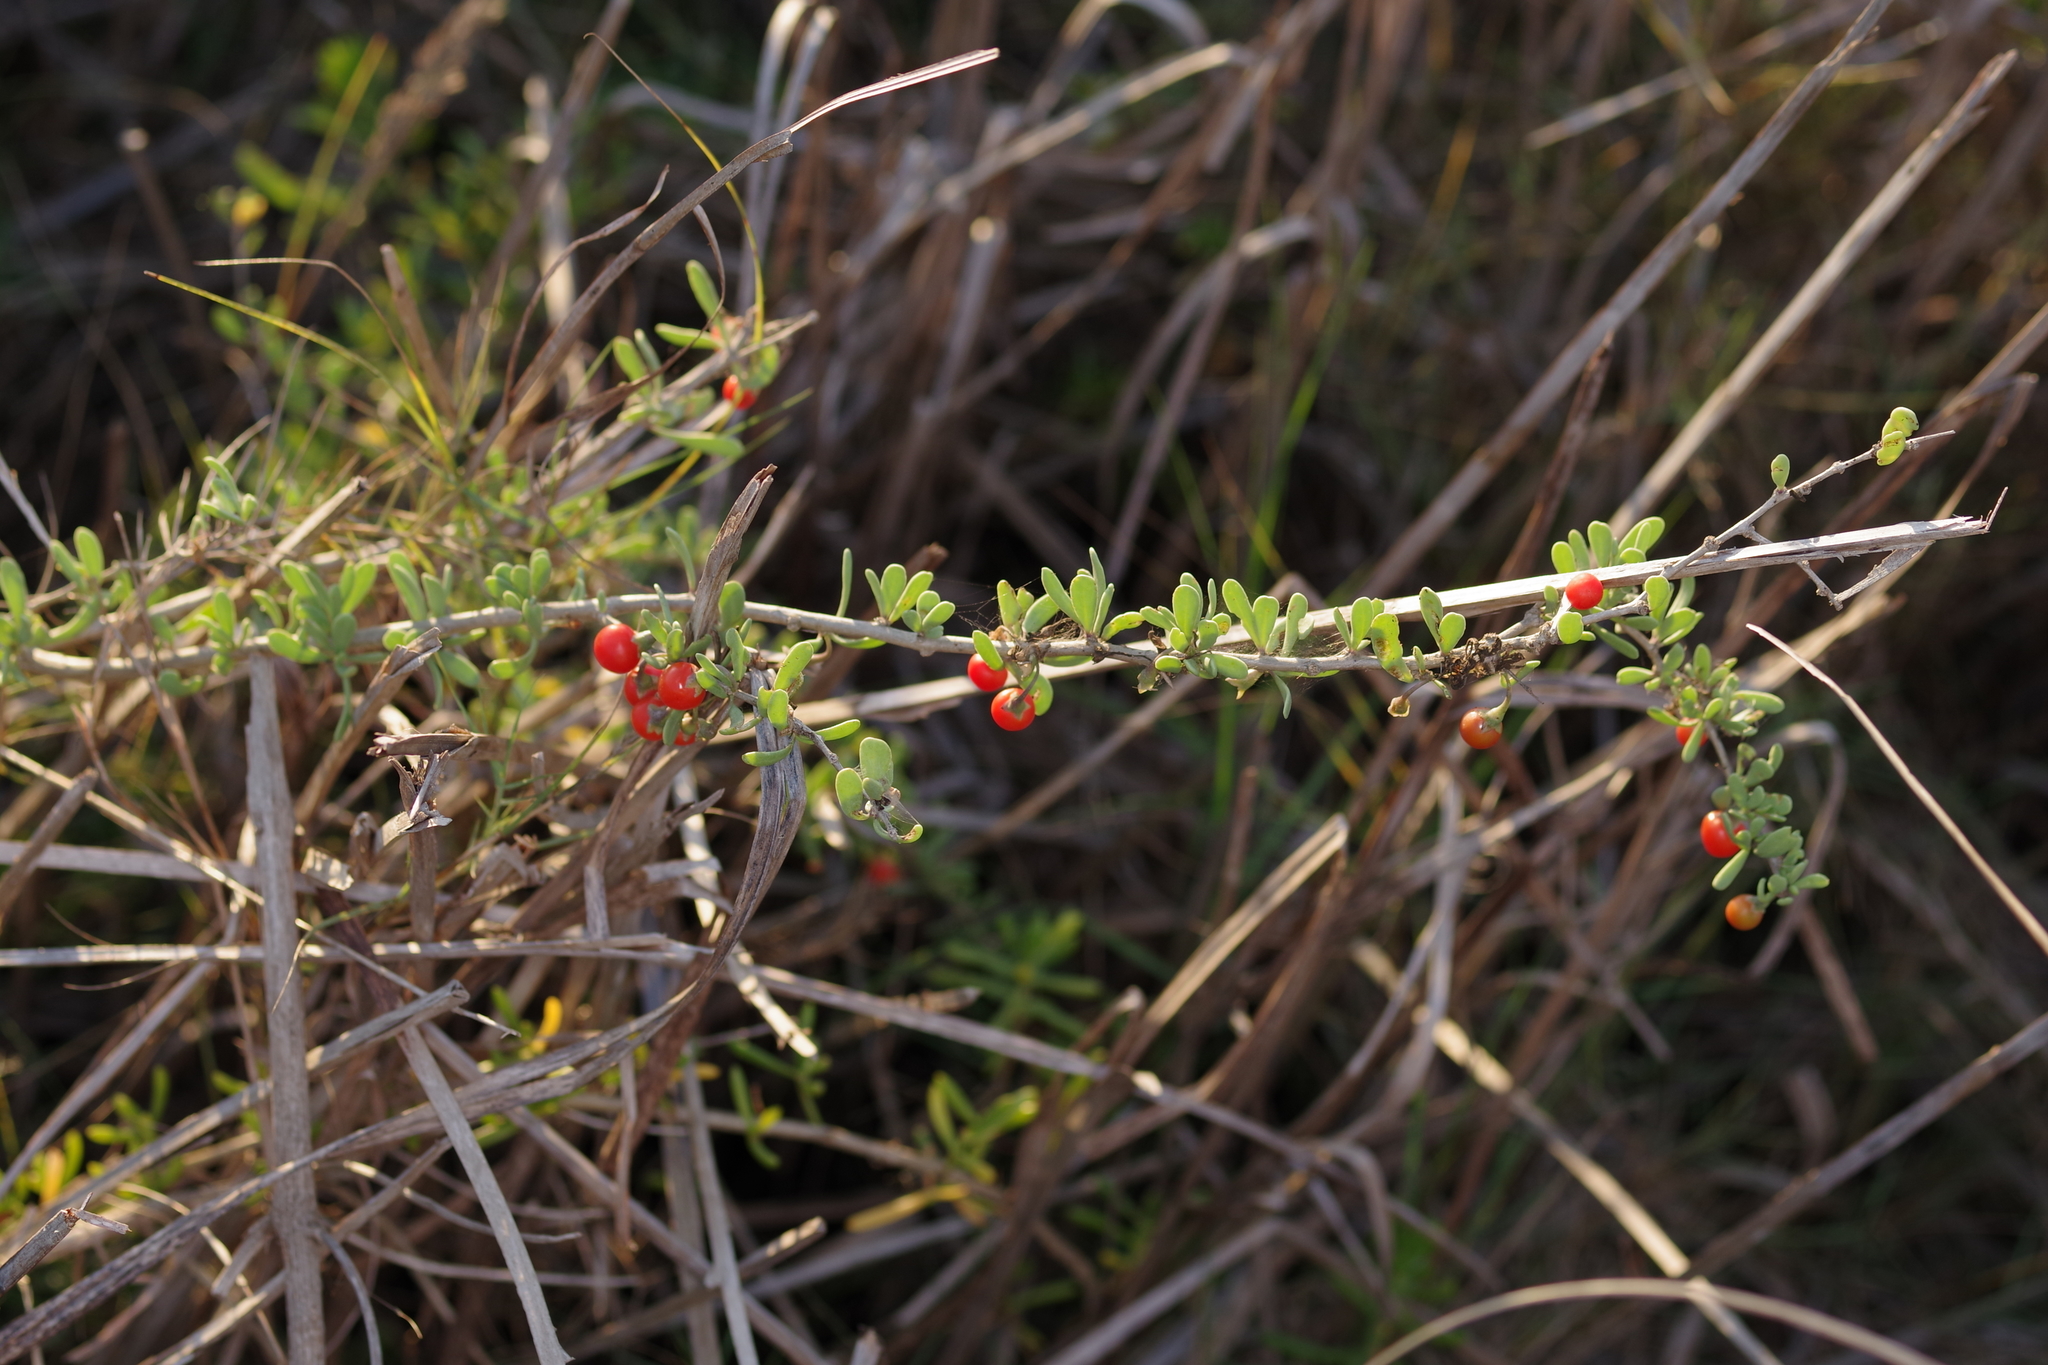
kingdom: Plantae
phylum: Tracheophyta
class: Magnoliopsida
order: Solanales
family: Solanaceae
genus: Lycium
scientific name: Lycium carolinianum
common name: Christmasberry
